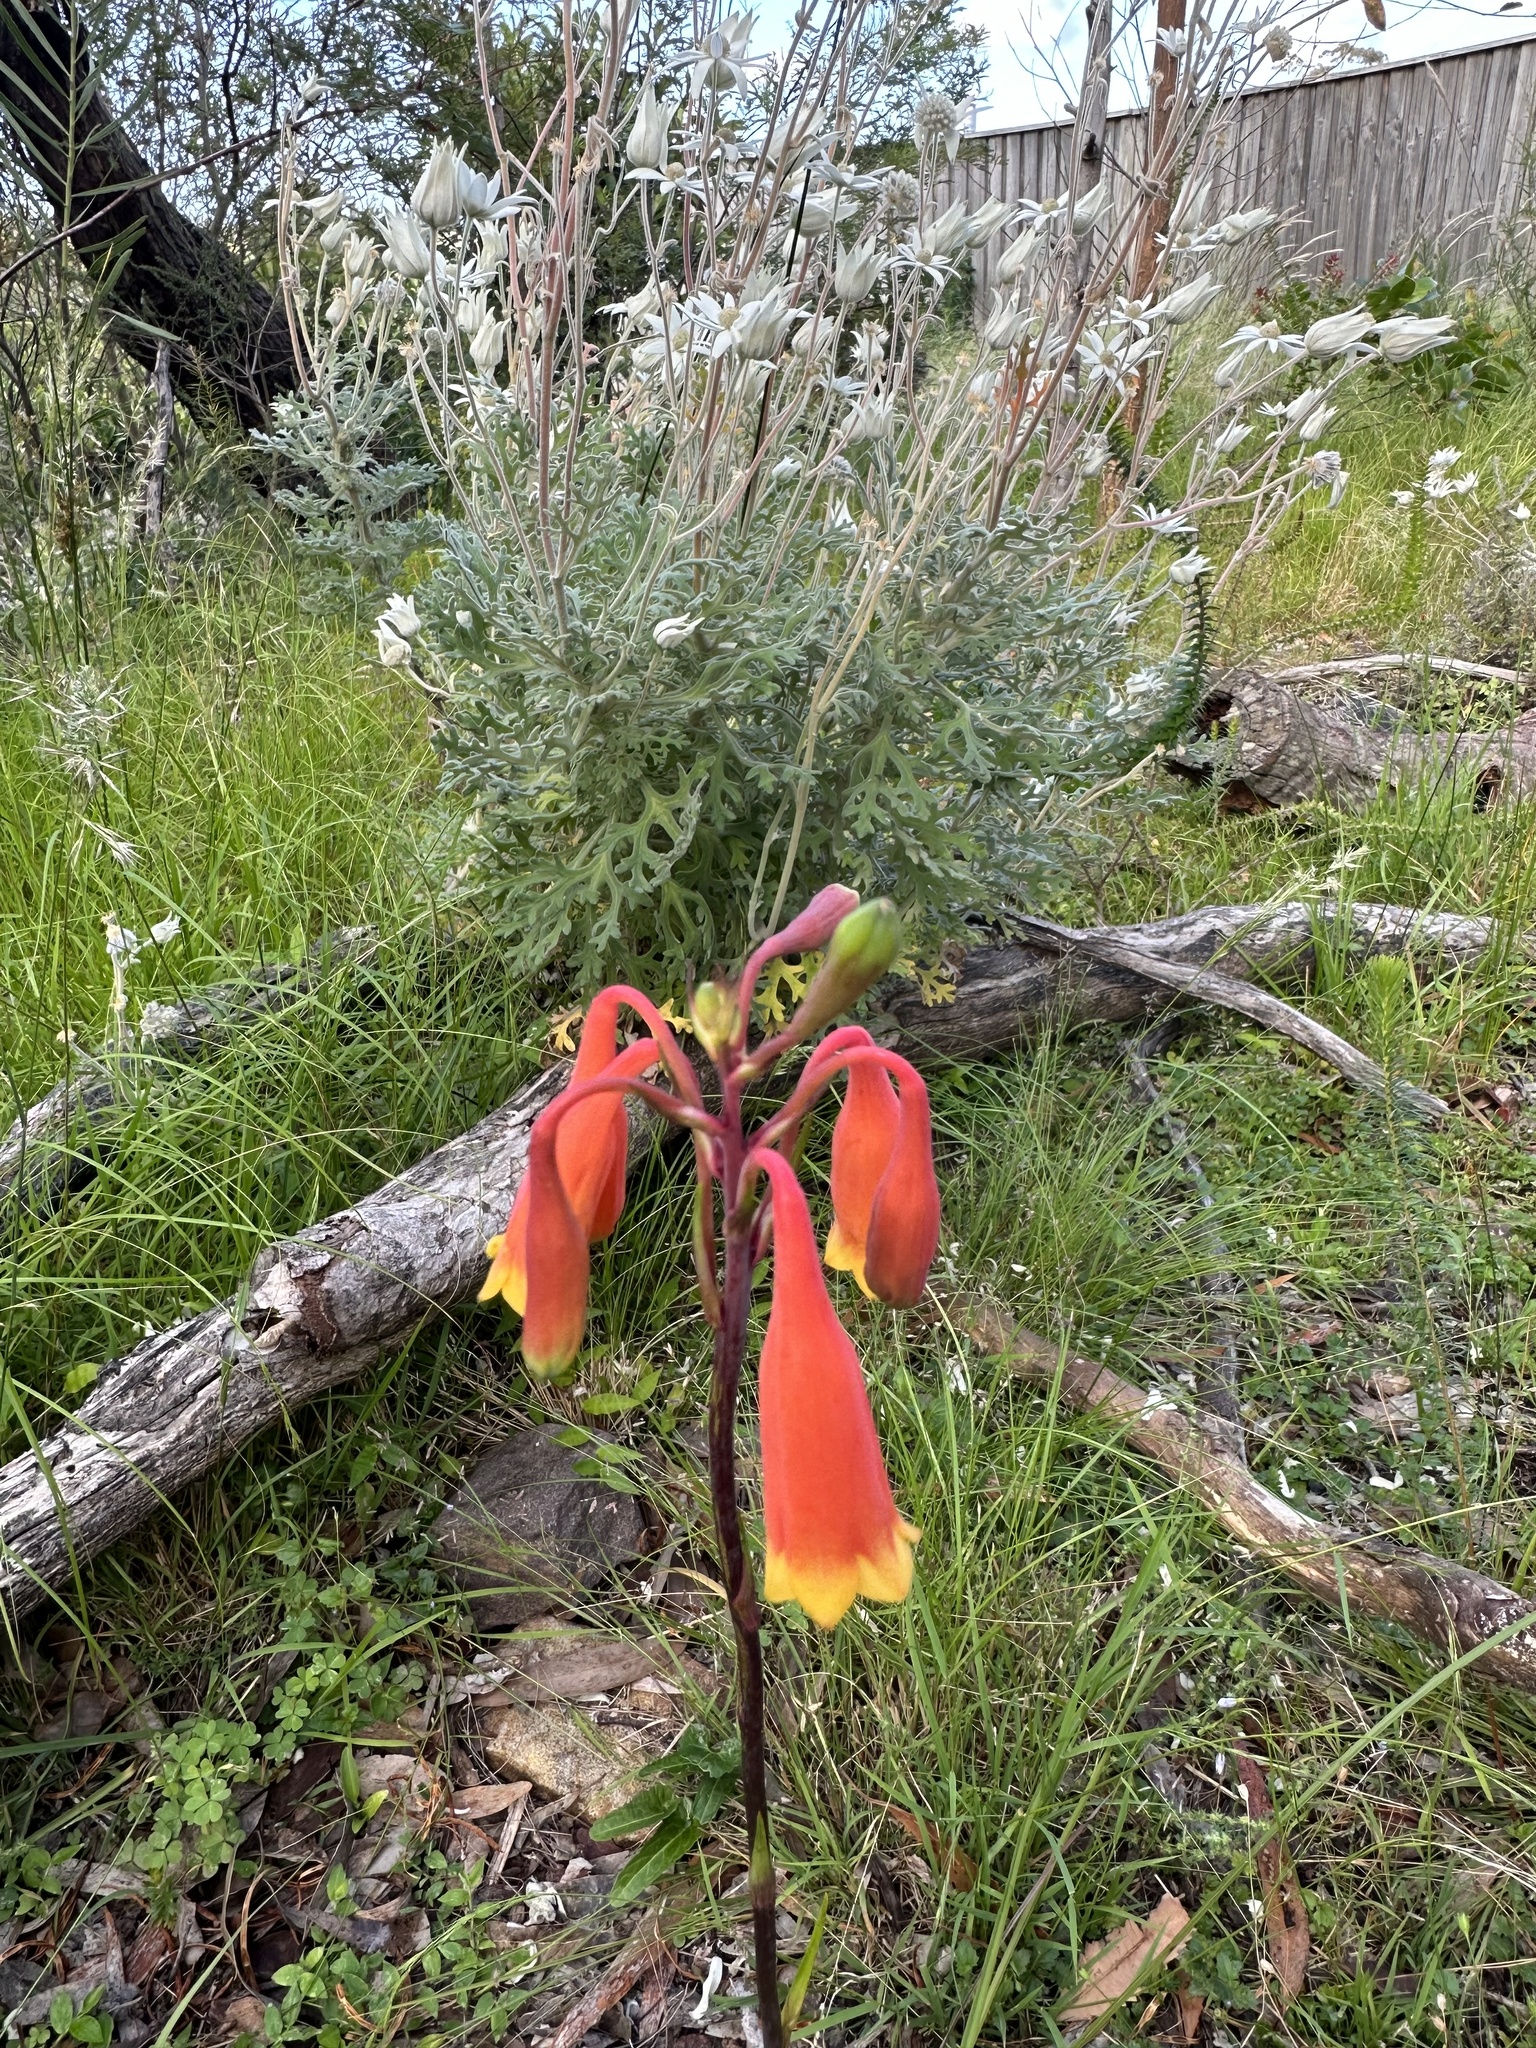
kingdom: Plantae
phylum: Tracheophyta
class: Liliopsida
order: Asparagales
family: Blandfordiaceae
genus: Blandfordia
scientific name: Blandfordia nobilis
